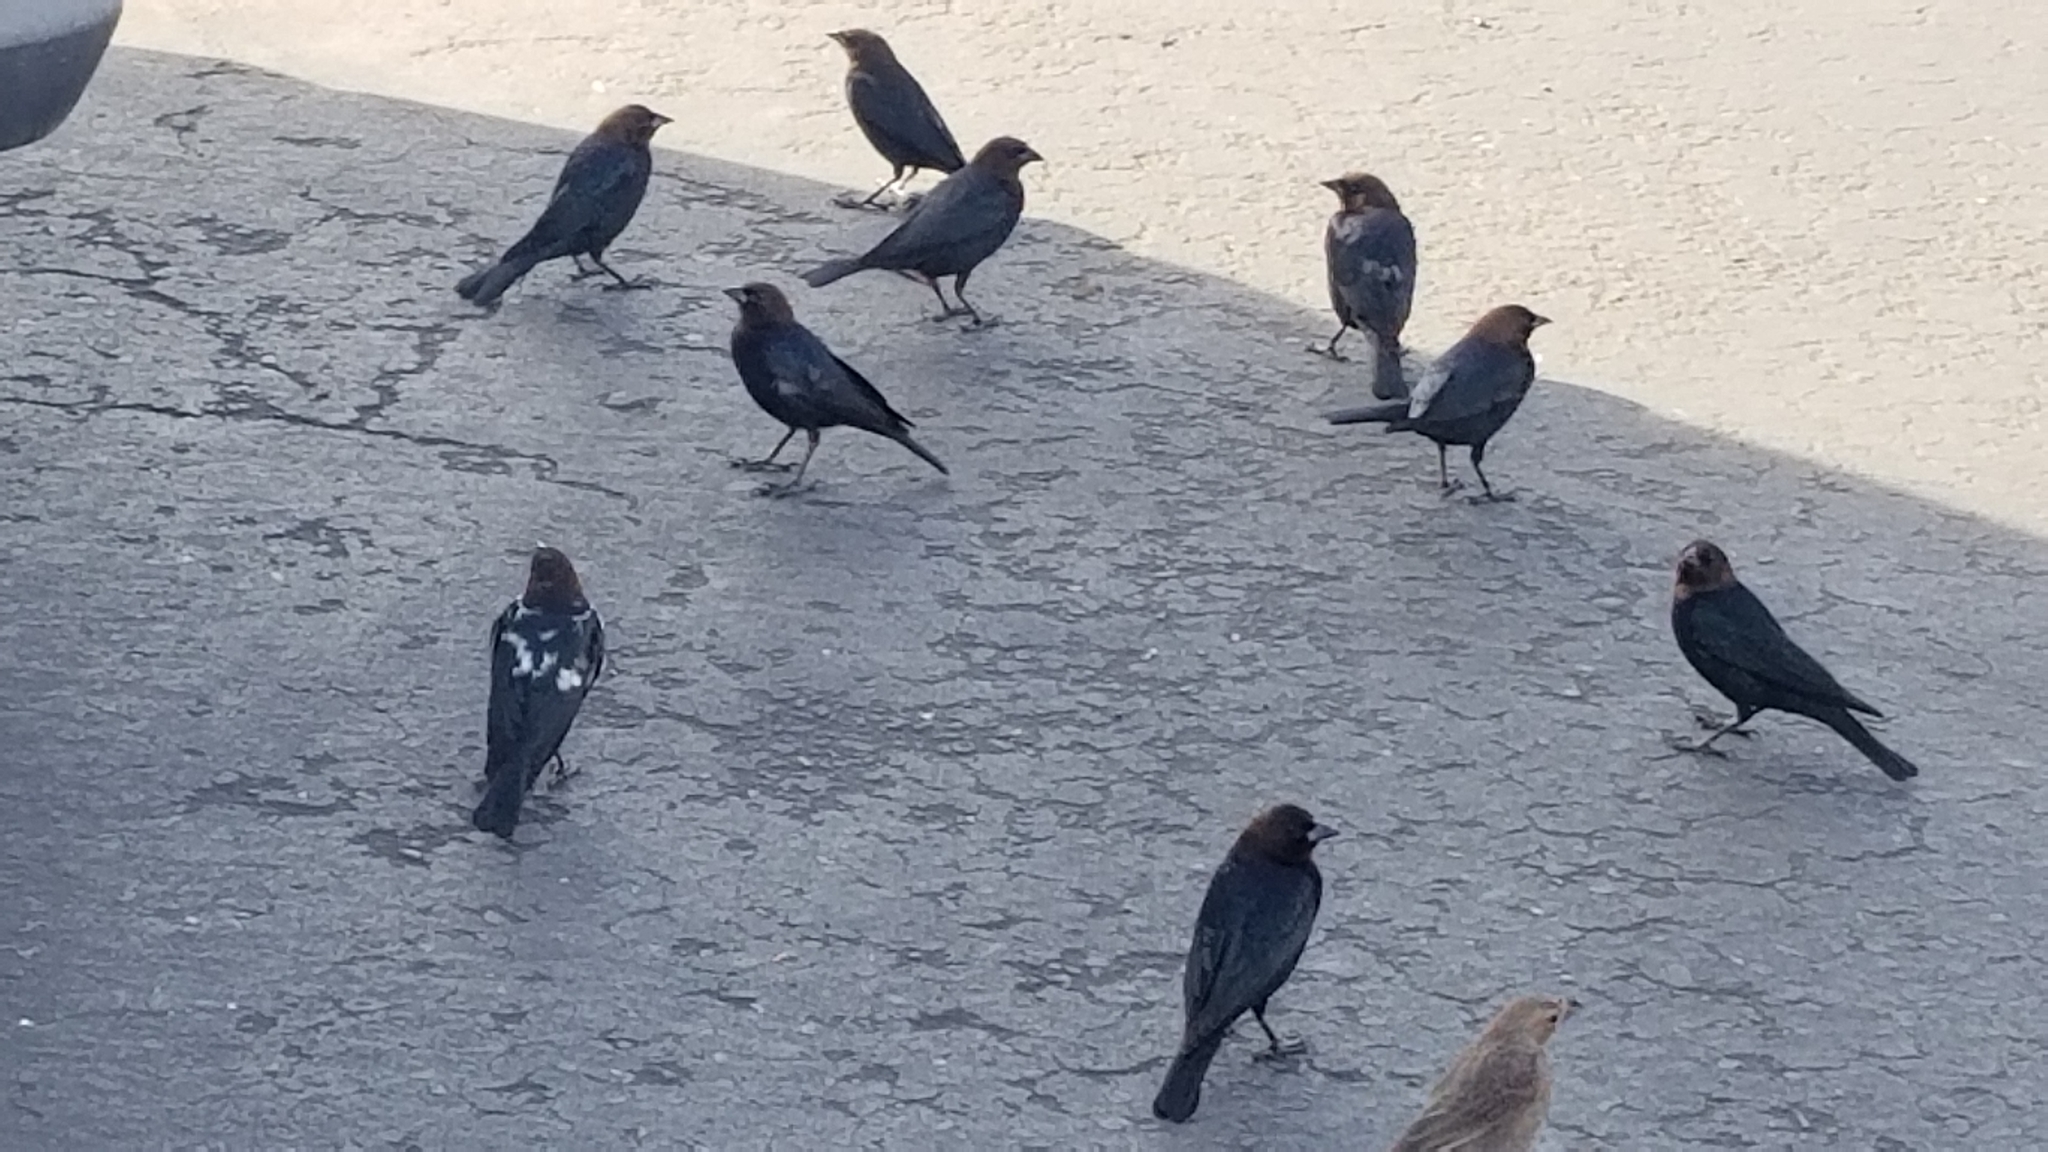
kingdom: Animalia
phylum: Chordata
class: Aves
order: Passeriformes
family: Icteridae
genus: Molothrus
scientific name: Molothrus ater
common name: Brown-headed cowbird
